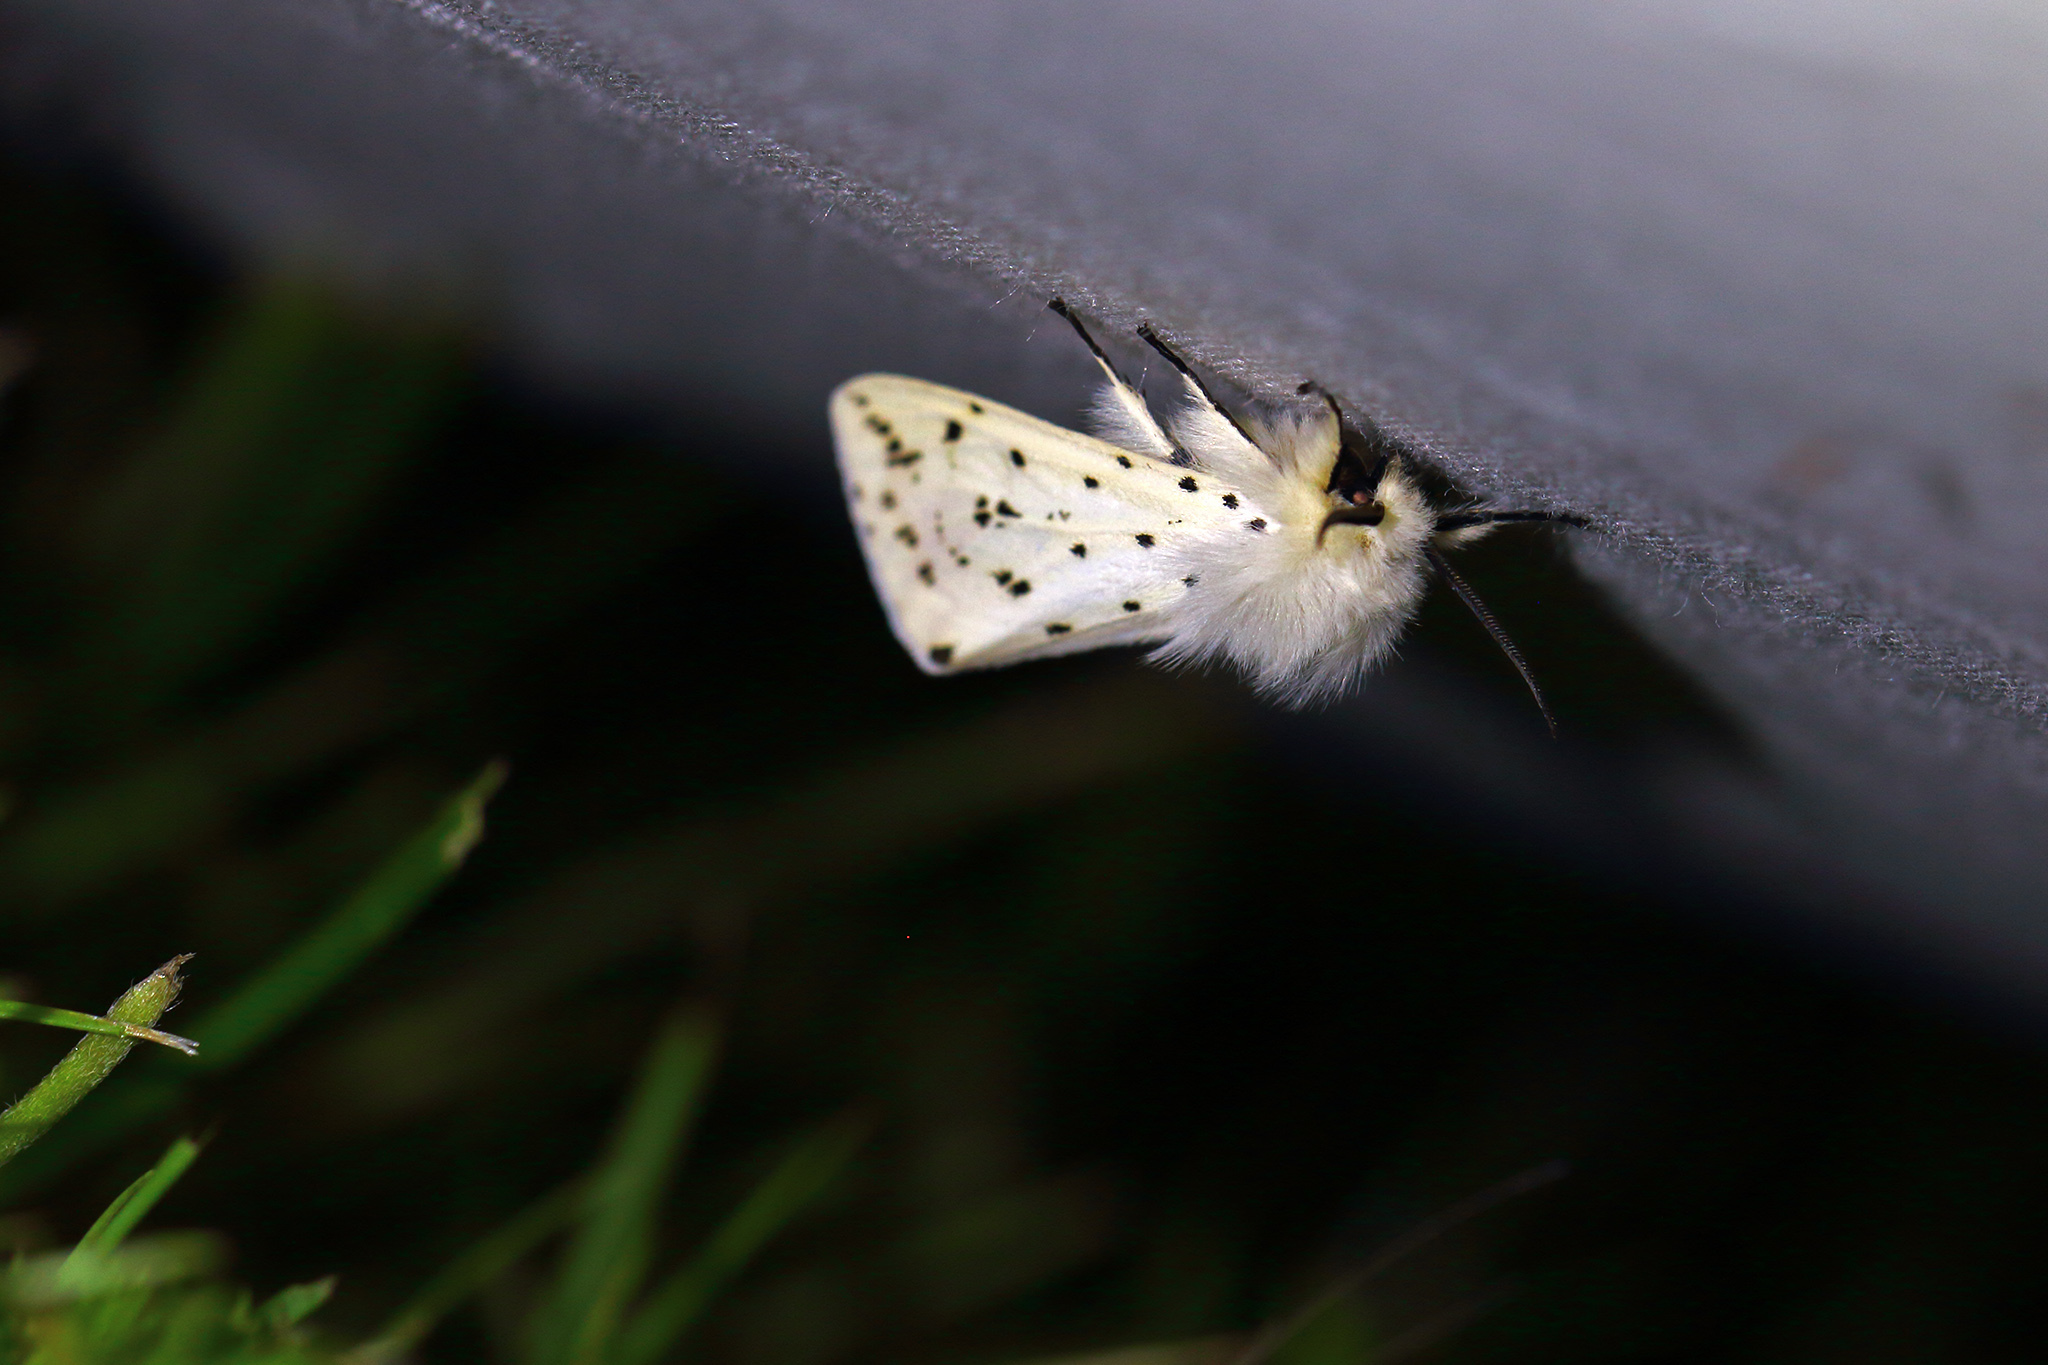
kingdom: Animalia
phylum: Arthropoda
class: Insecta
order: Lepidoptera
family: Erebidae
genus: Spilosoma
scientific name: Spilosoma lubricipeda
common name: White ermine
